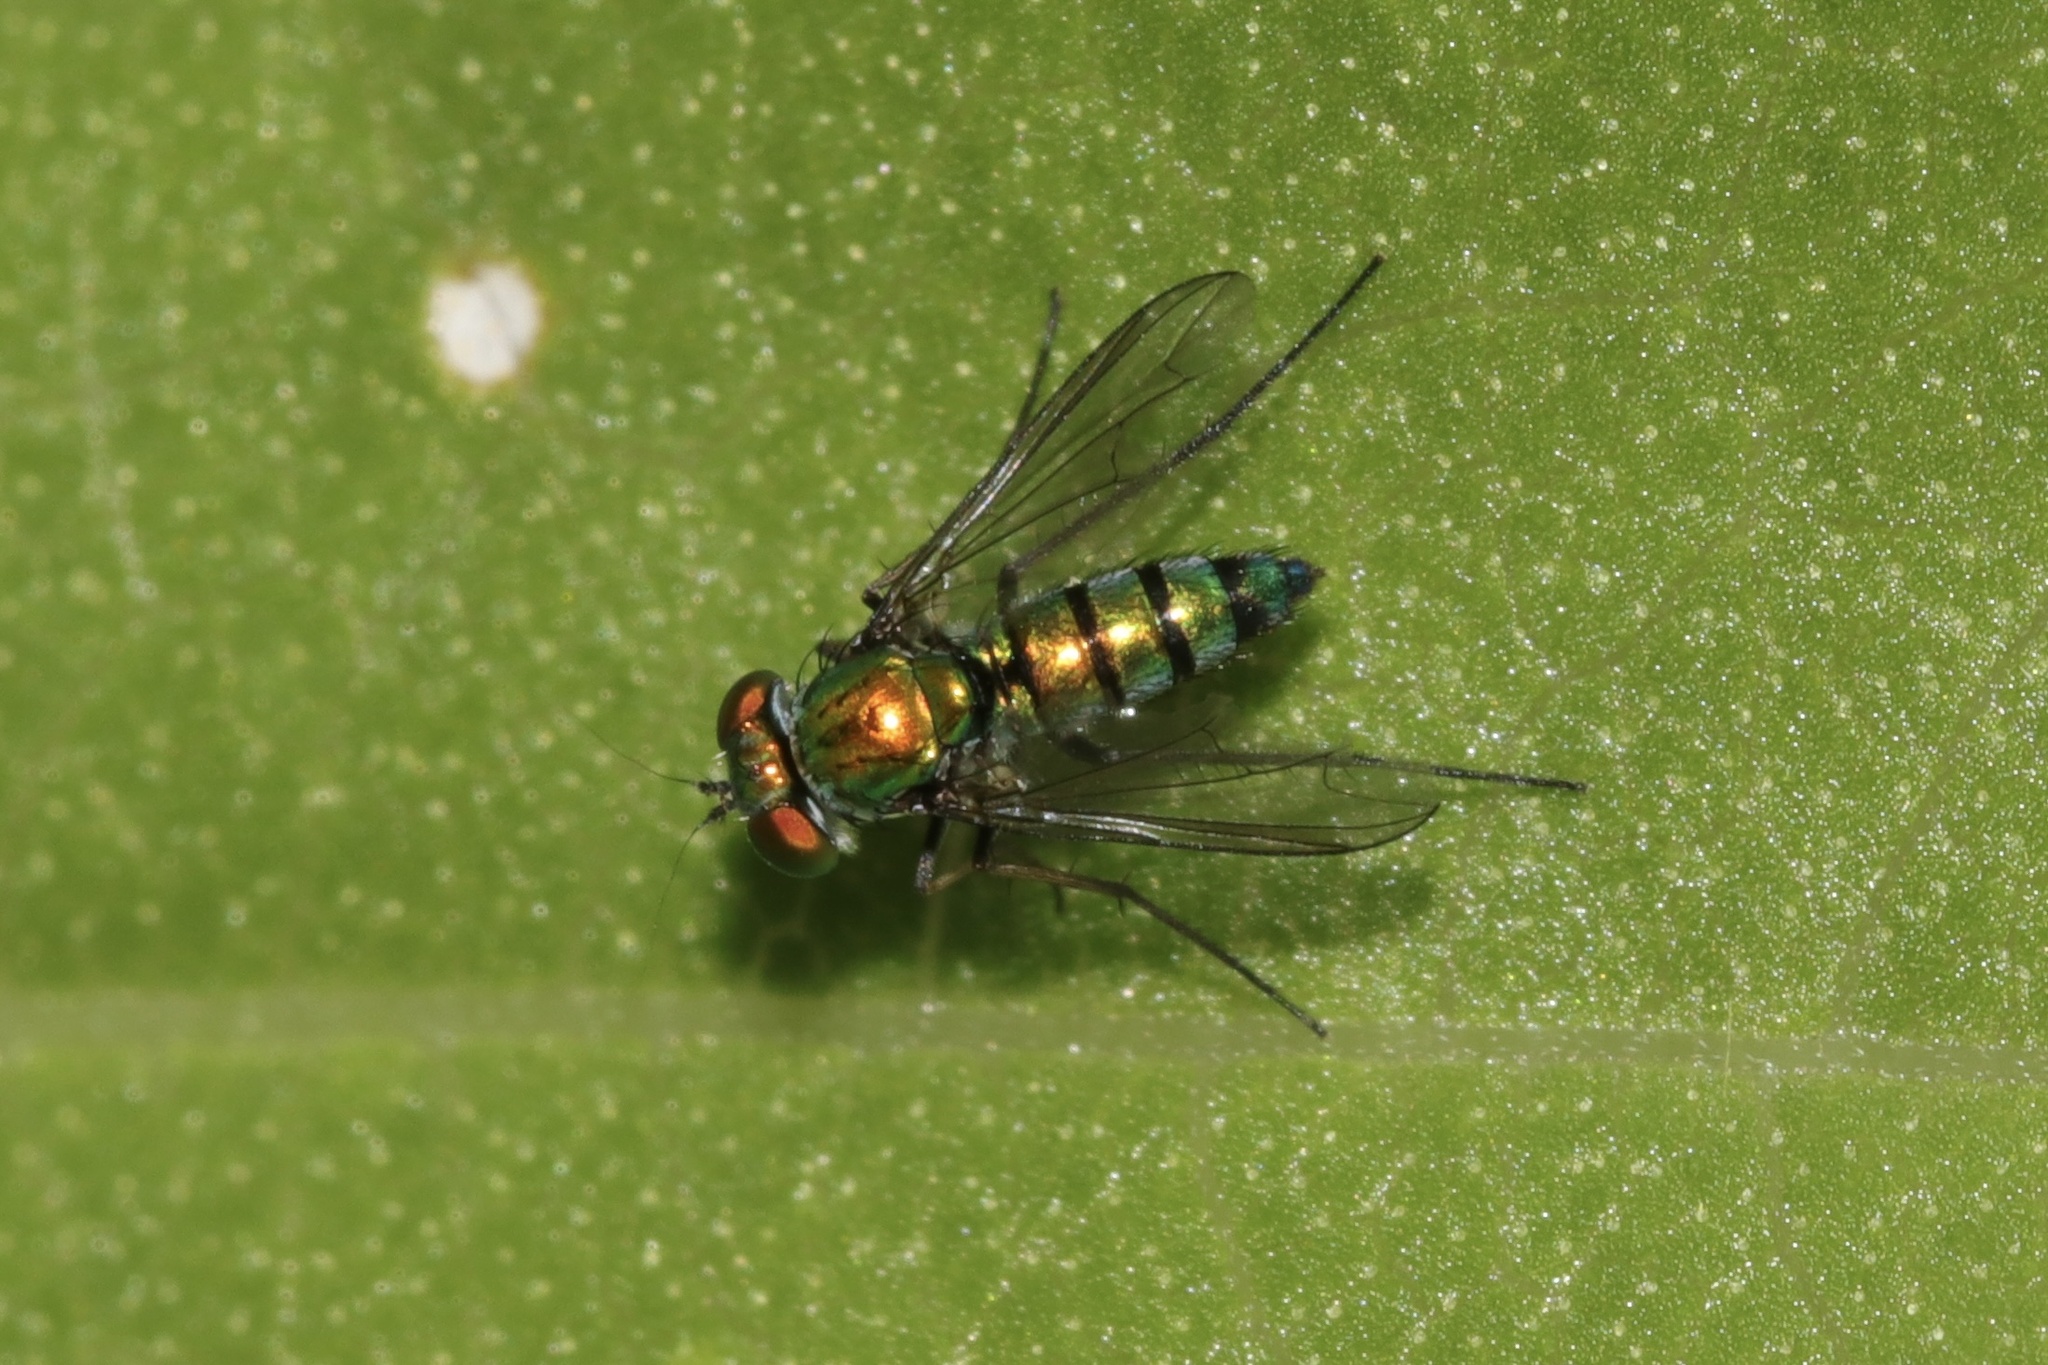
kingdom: Animalia
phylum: Arthropoda
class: Insecta
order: Diptera
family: Dolichopodidae
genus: Condylostylus
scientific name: Condylostylus longicornis
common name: Long-legged fly
